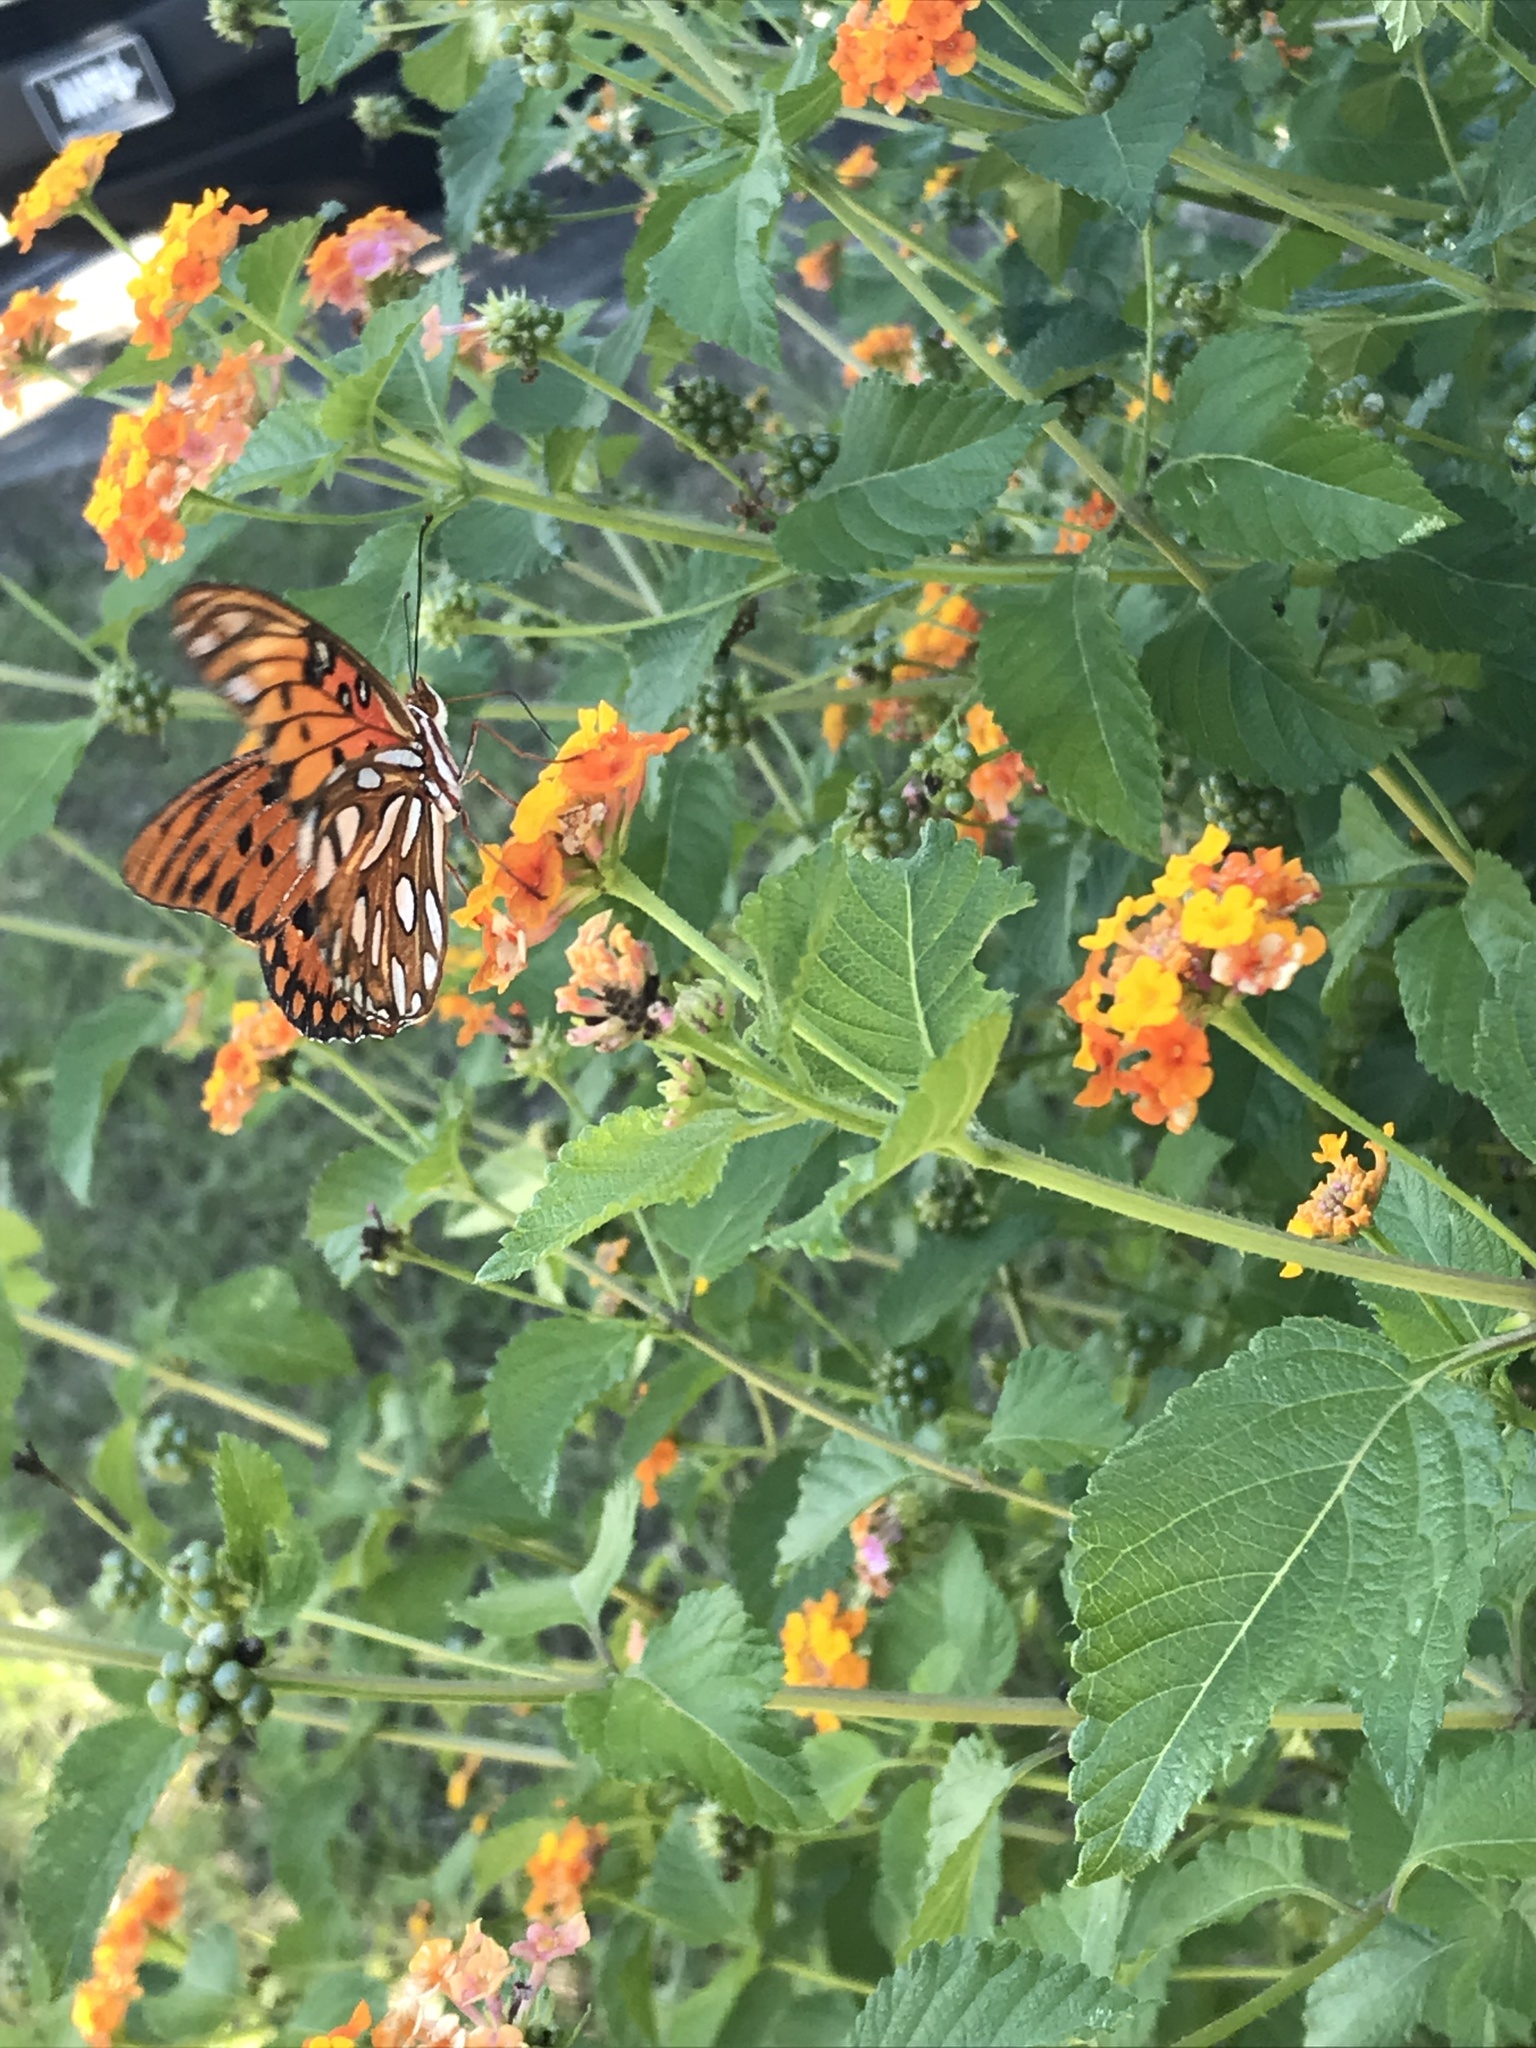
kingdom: Animalia
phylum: Arthropoda
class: Insecta
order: Lepidoptera
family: Nymphalidae
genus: Dione
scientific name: Dione vanillae
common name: Gulf fritillary
